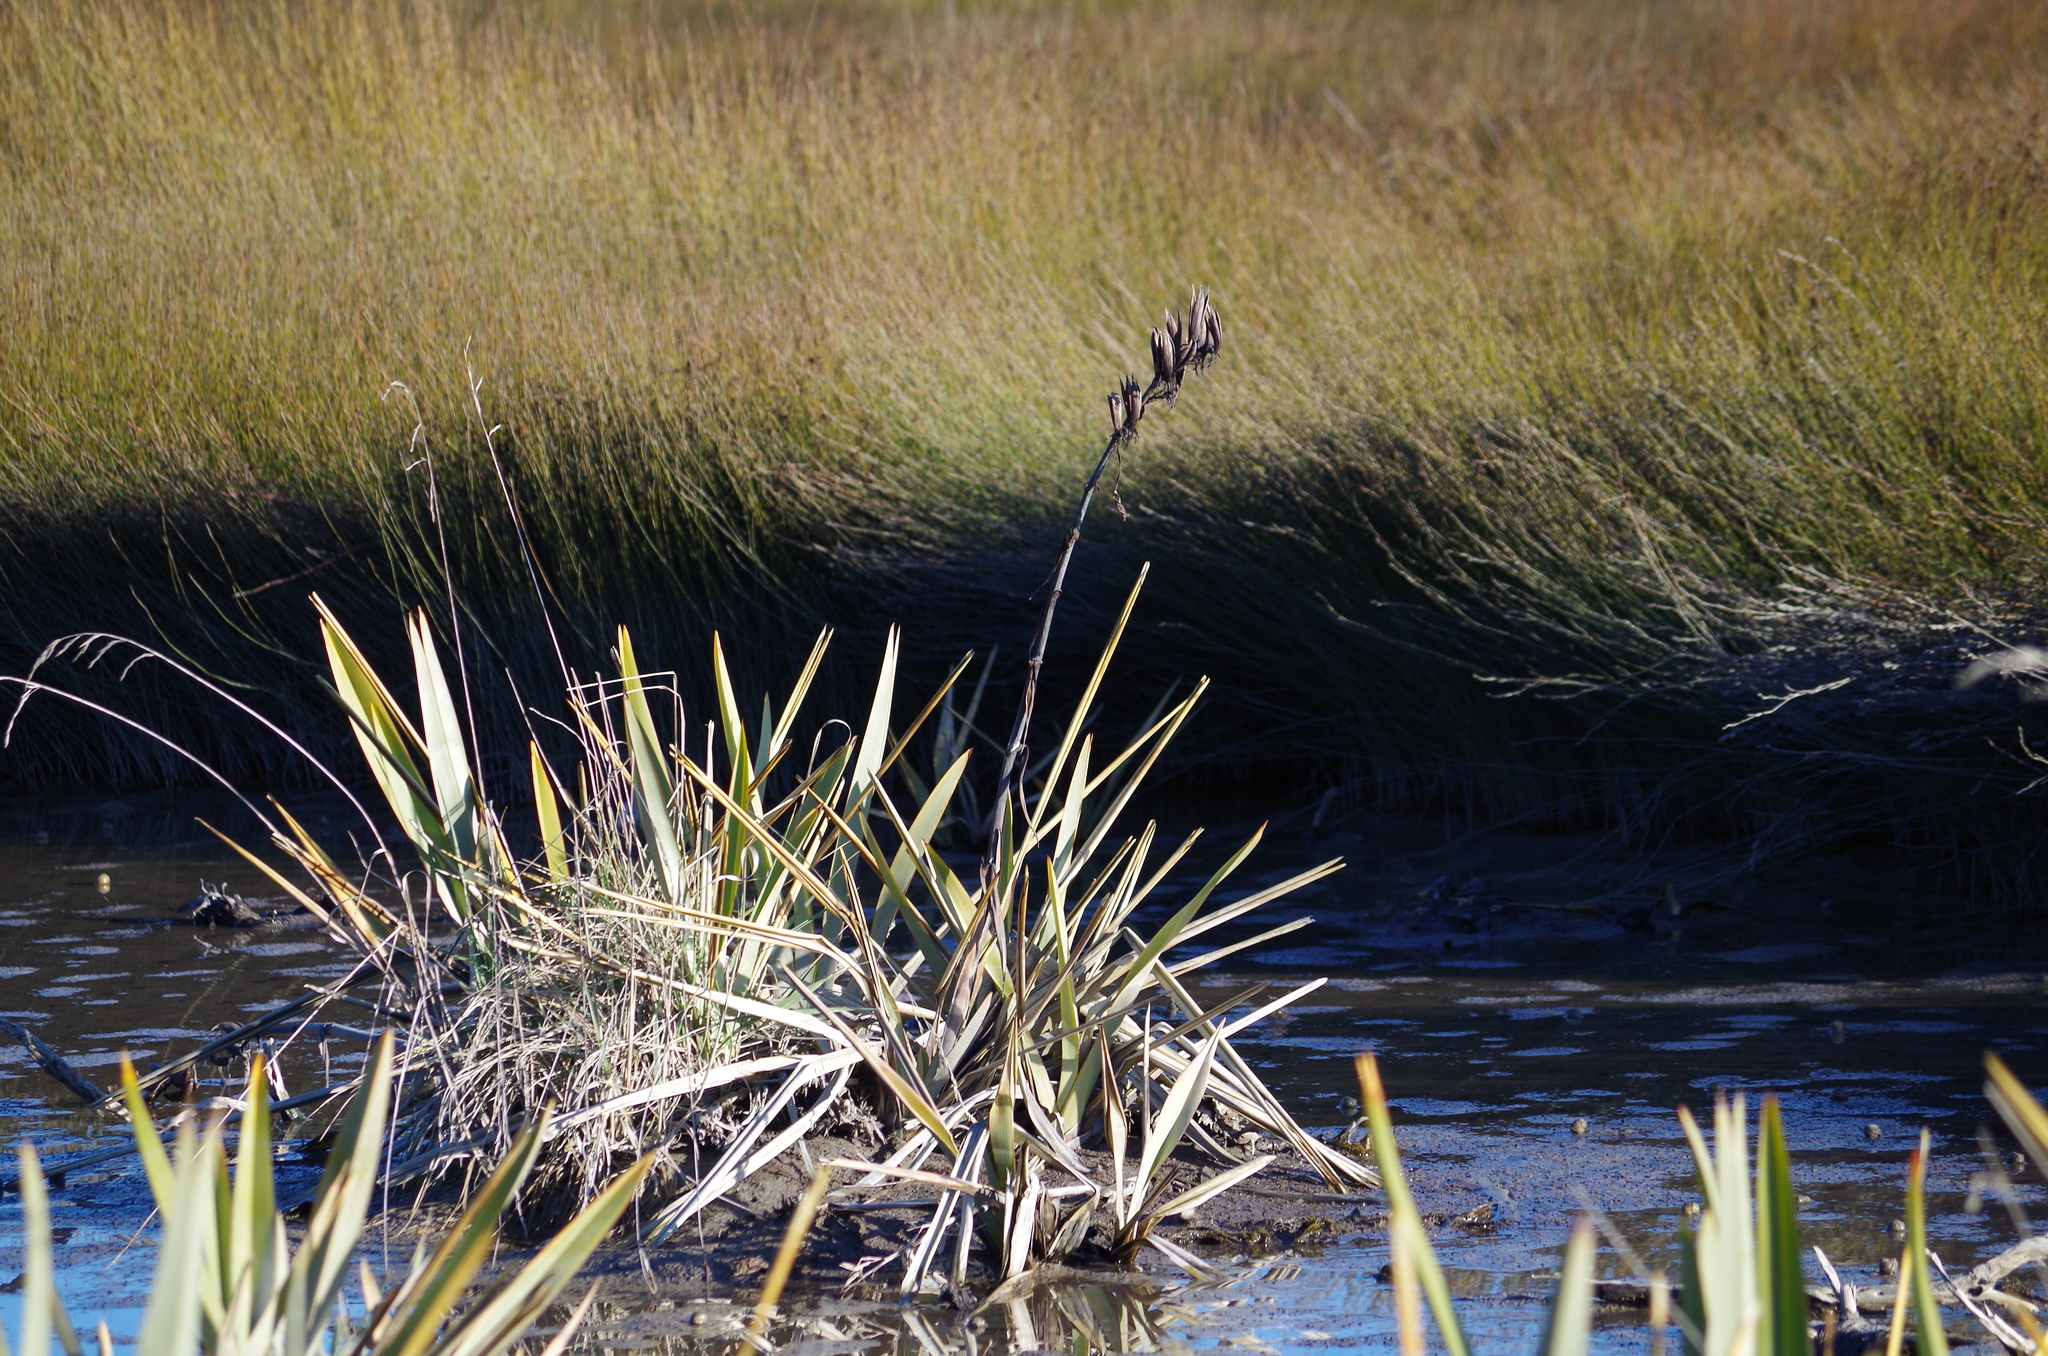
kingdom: Plantae
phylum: Tracheophyta
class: Liliopsida
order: Asparagales
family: Asphodelaceae
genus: Phormium
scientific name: Phormium tenax
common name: New zealand flax
